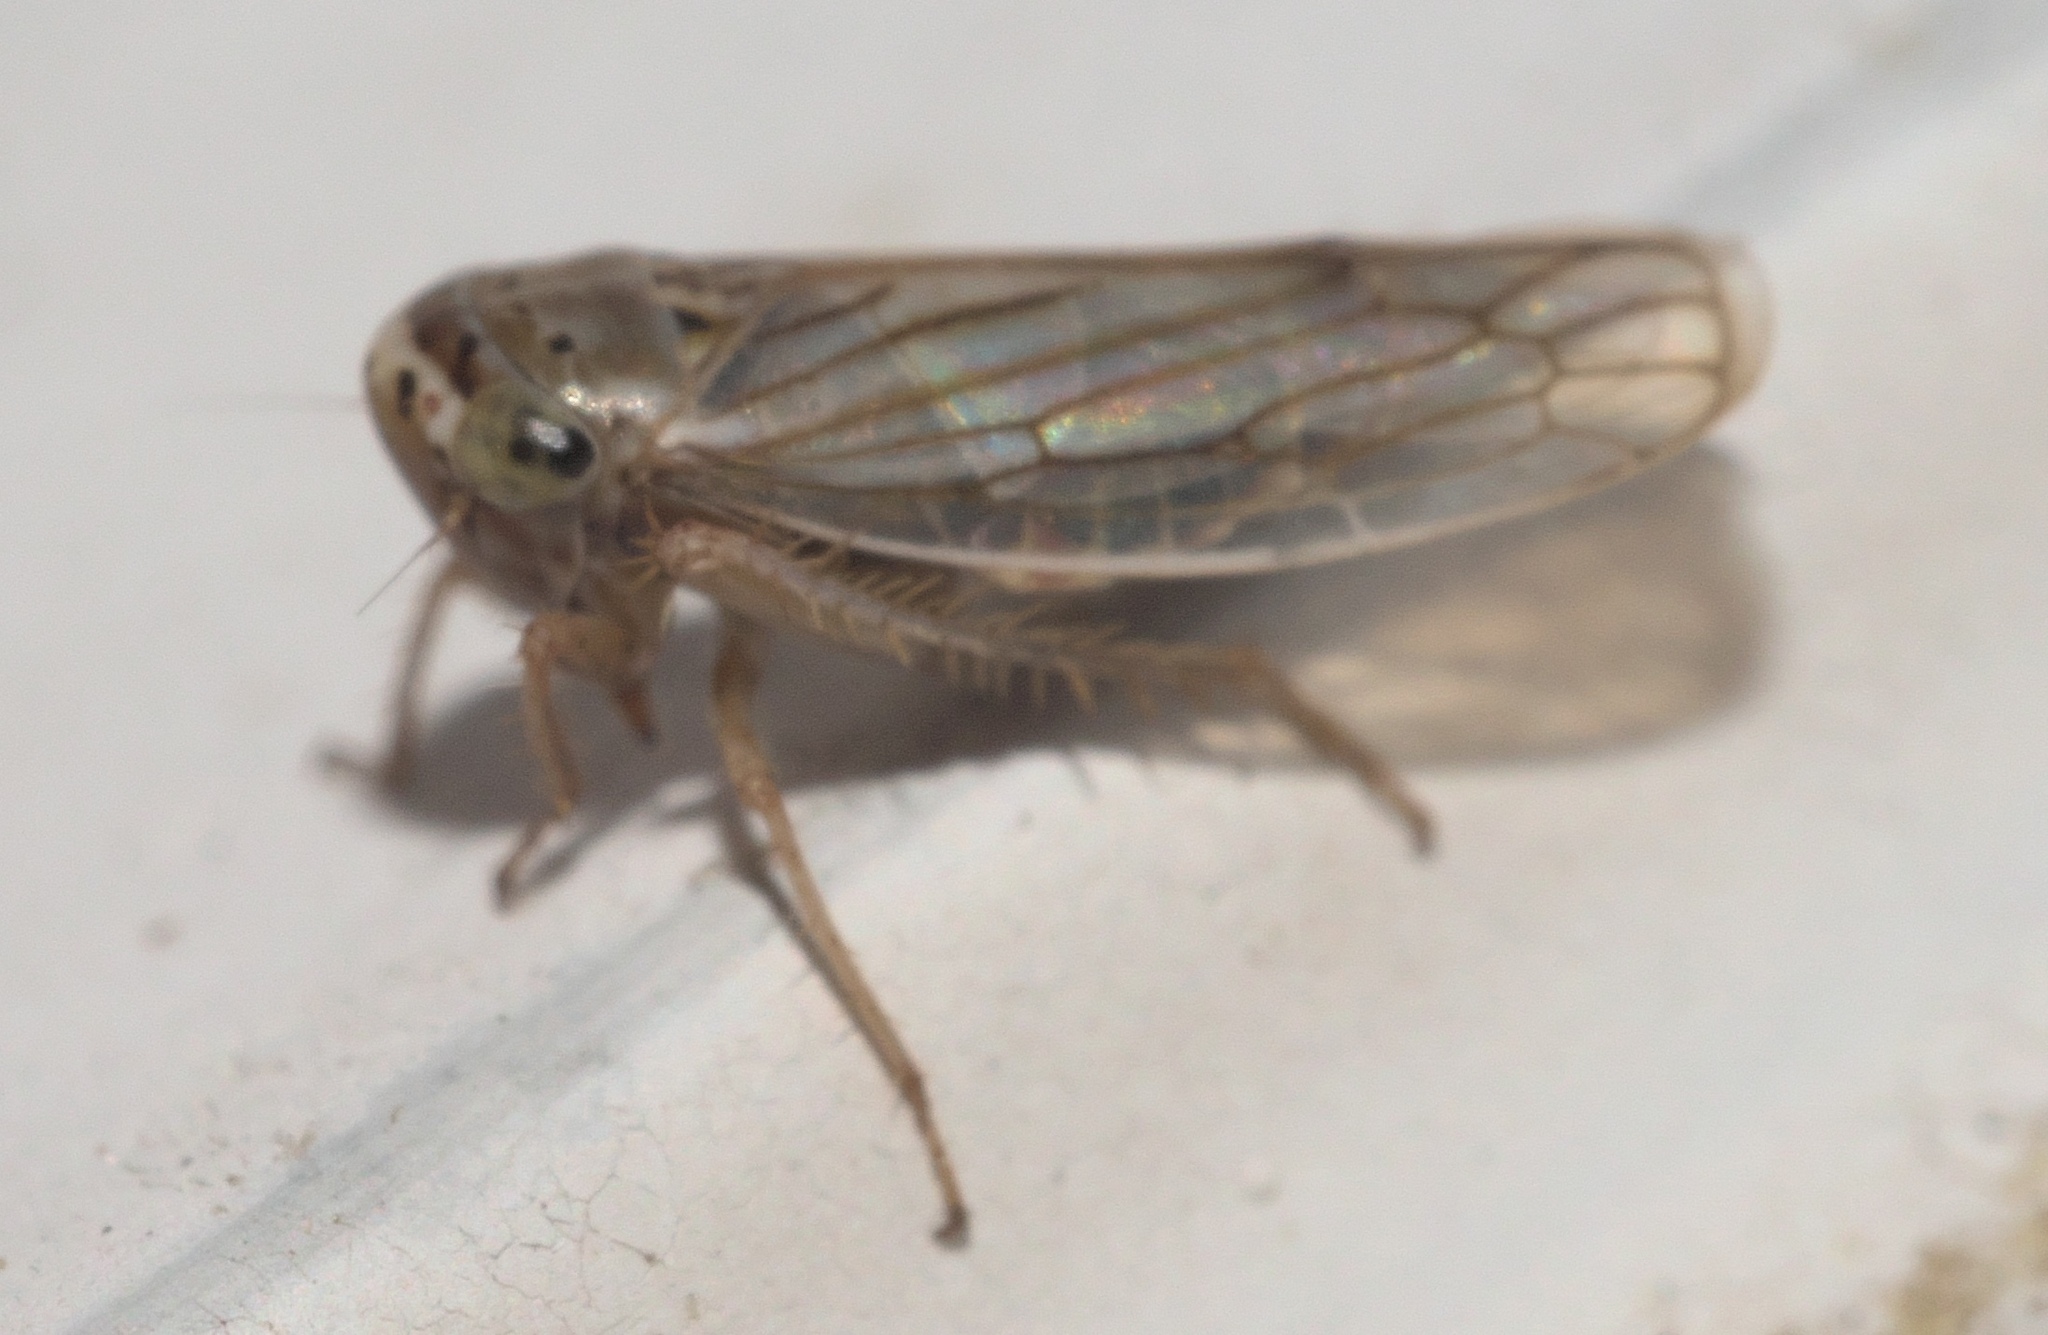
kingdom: Animalia
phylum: Arthropoda
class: Insecta
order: Hemiptera
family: Cicadellidae
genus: Exitianus
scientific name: Exitianus exitiosus
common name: Gray lawn leafhopper
